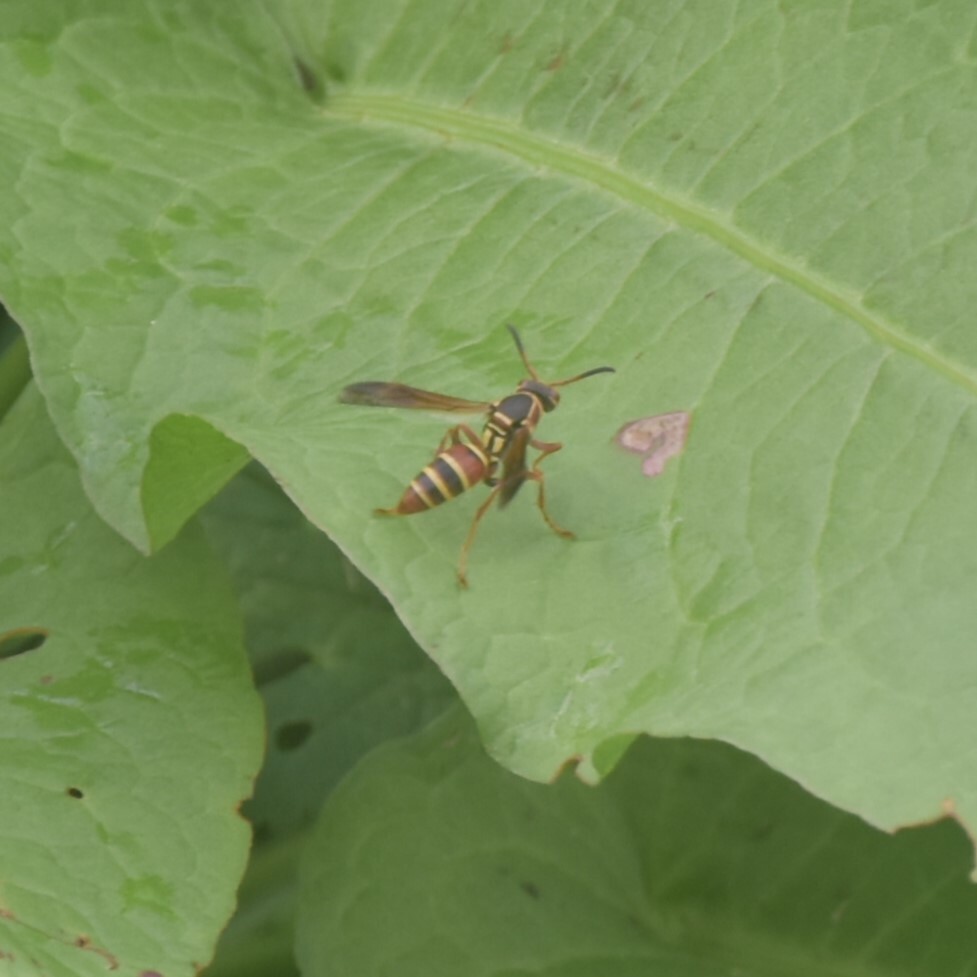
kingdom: Animalia
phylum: Arthropoda
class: Insecta
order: Hymenoptera
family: Eumenidae
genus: Knemodynerus
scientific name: Knemodynerus multimaculatus
